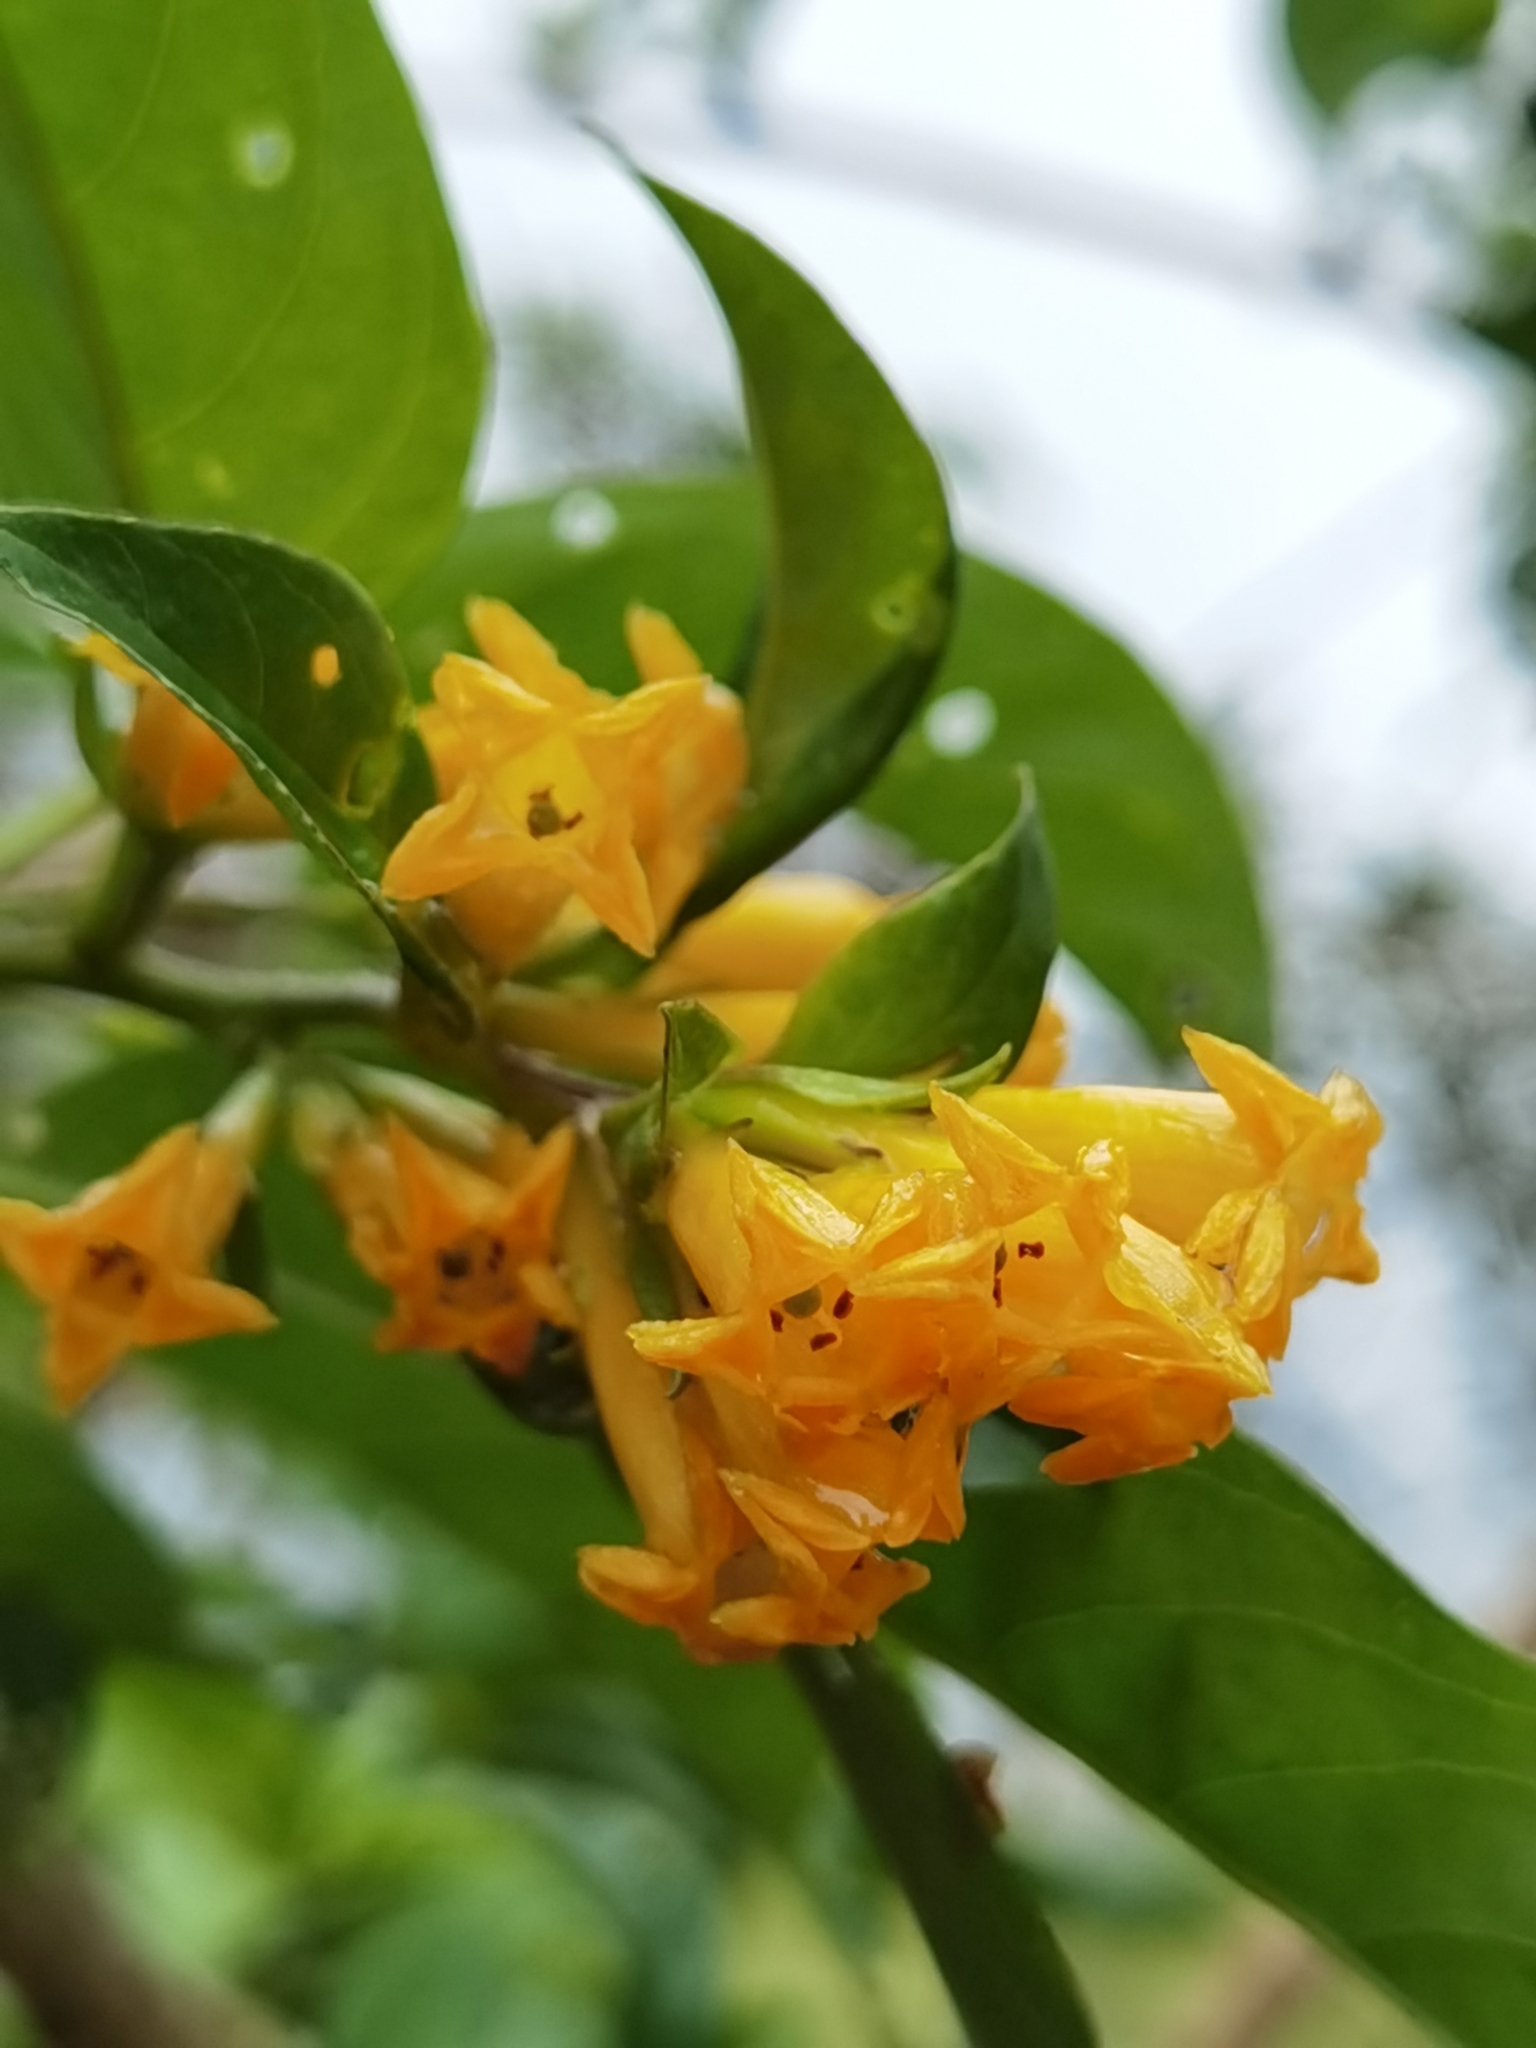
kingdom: Plantae
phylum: Tracheophyta
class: Magnoliopsida
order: Solanales
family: Solanaceae
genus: Cestrum
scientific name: Cestrum aurantiacum
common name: Orange cestrum
